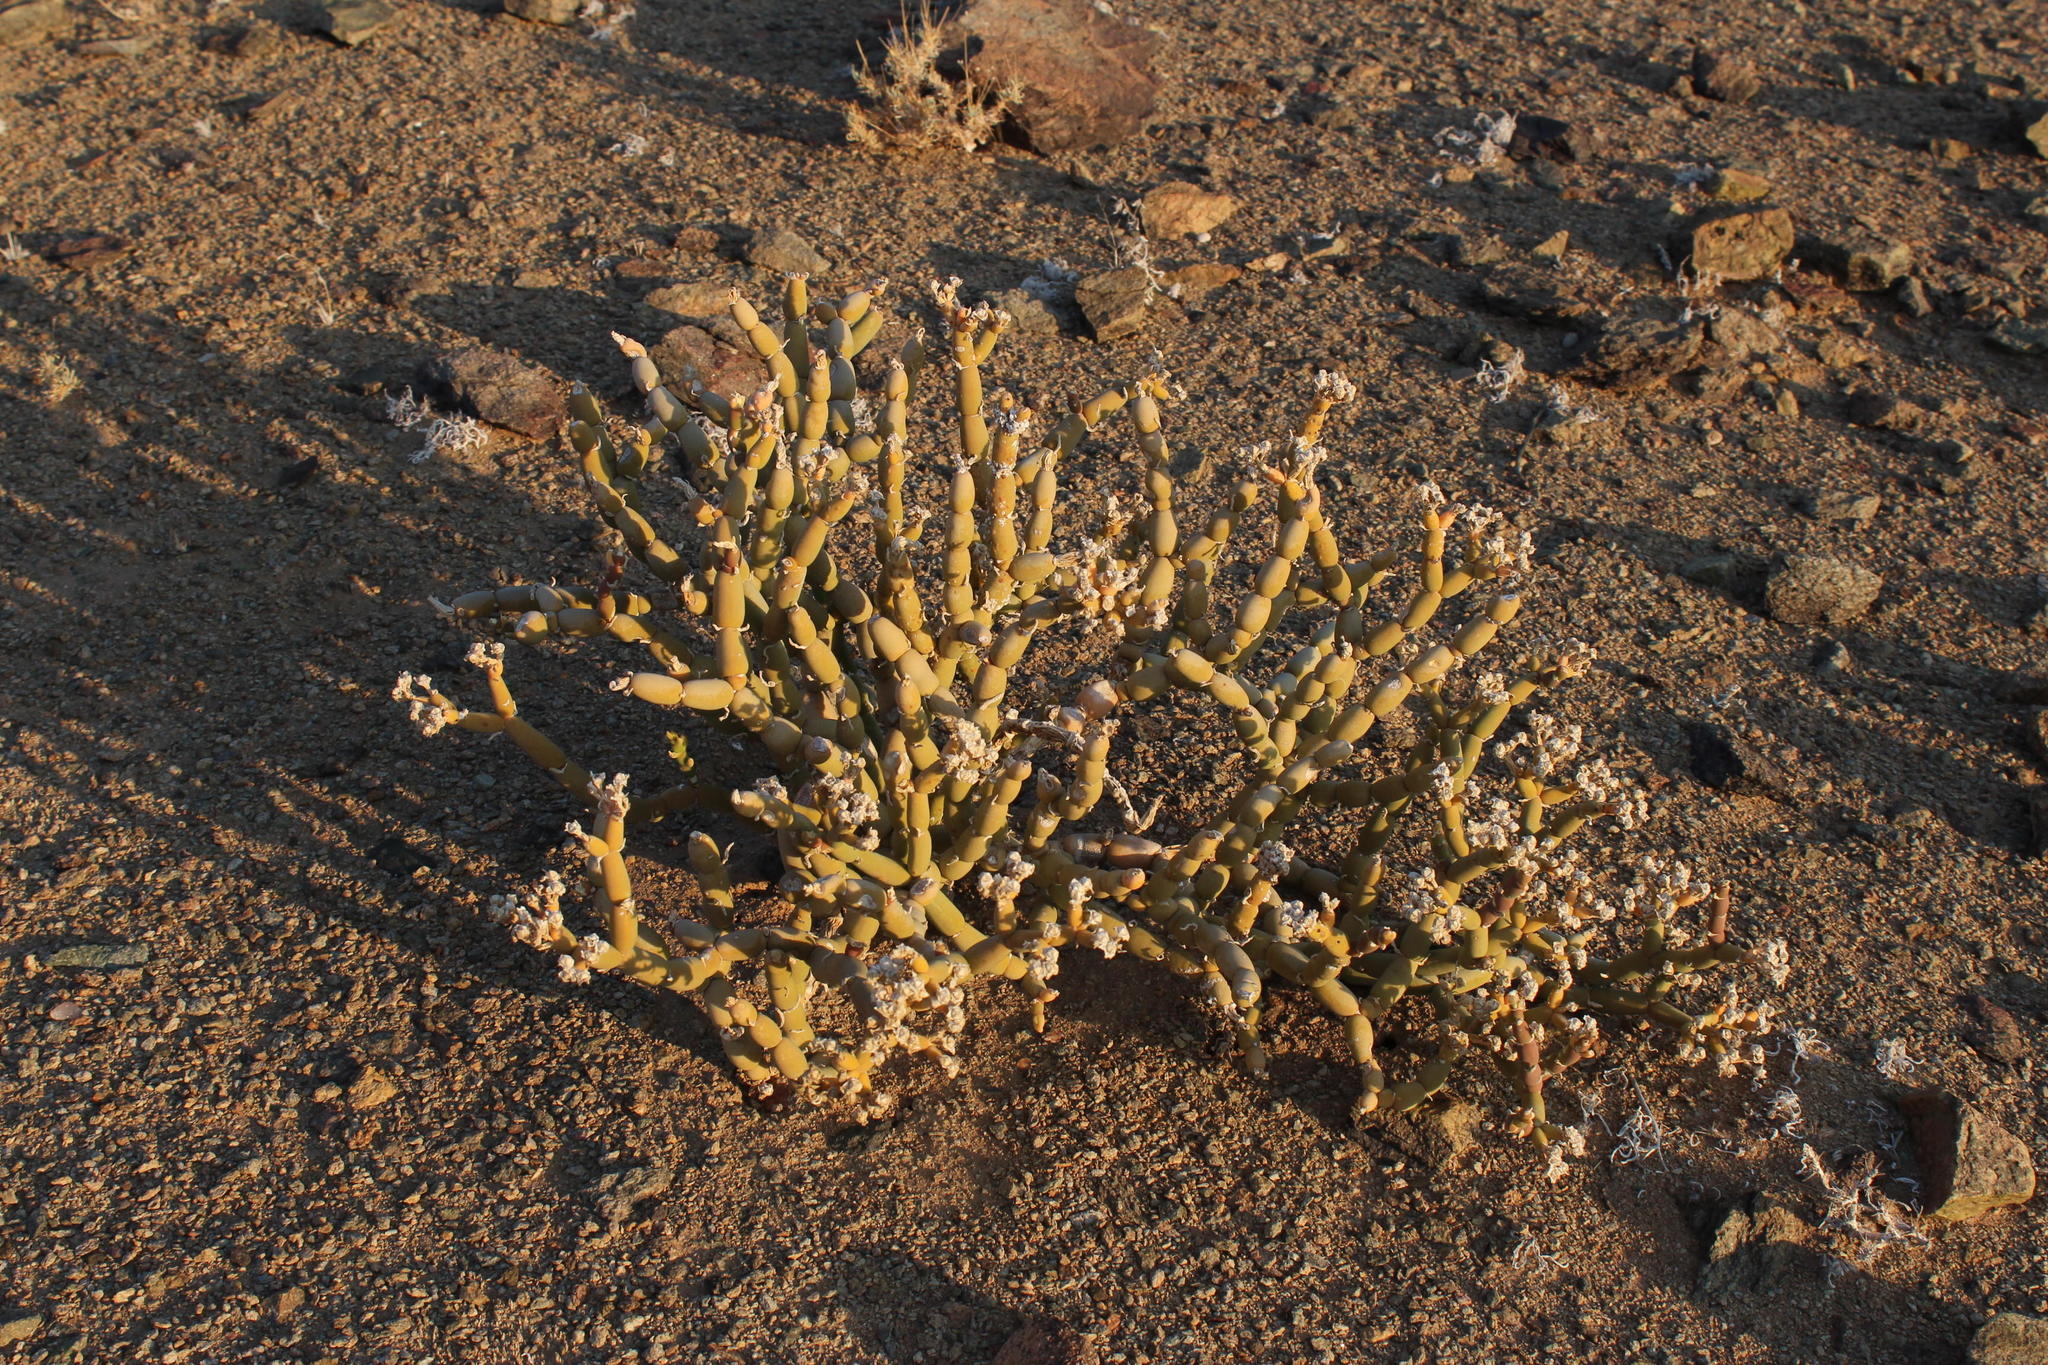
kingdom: Plantae
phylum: Tracheophyta
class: Magnoliopsida
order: Caryophyllales
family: Aizoaceae
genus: Mesembryanthemum
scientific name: Mesembryanthemum pseudoschlichtianum
